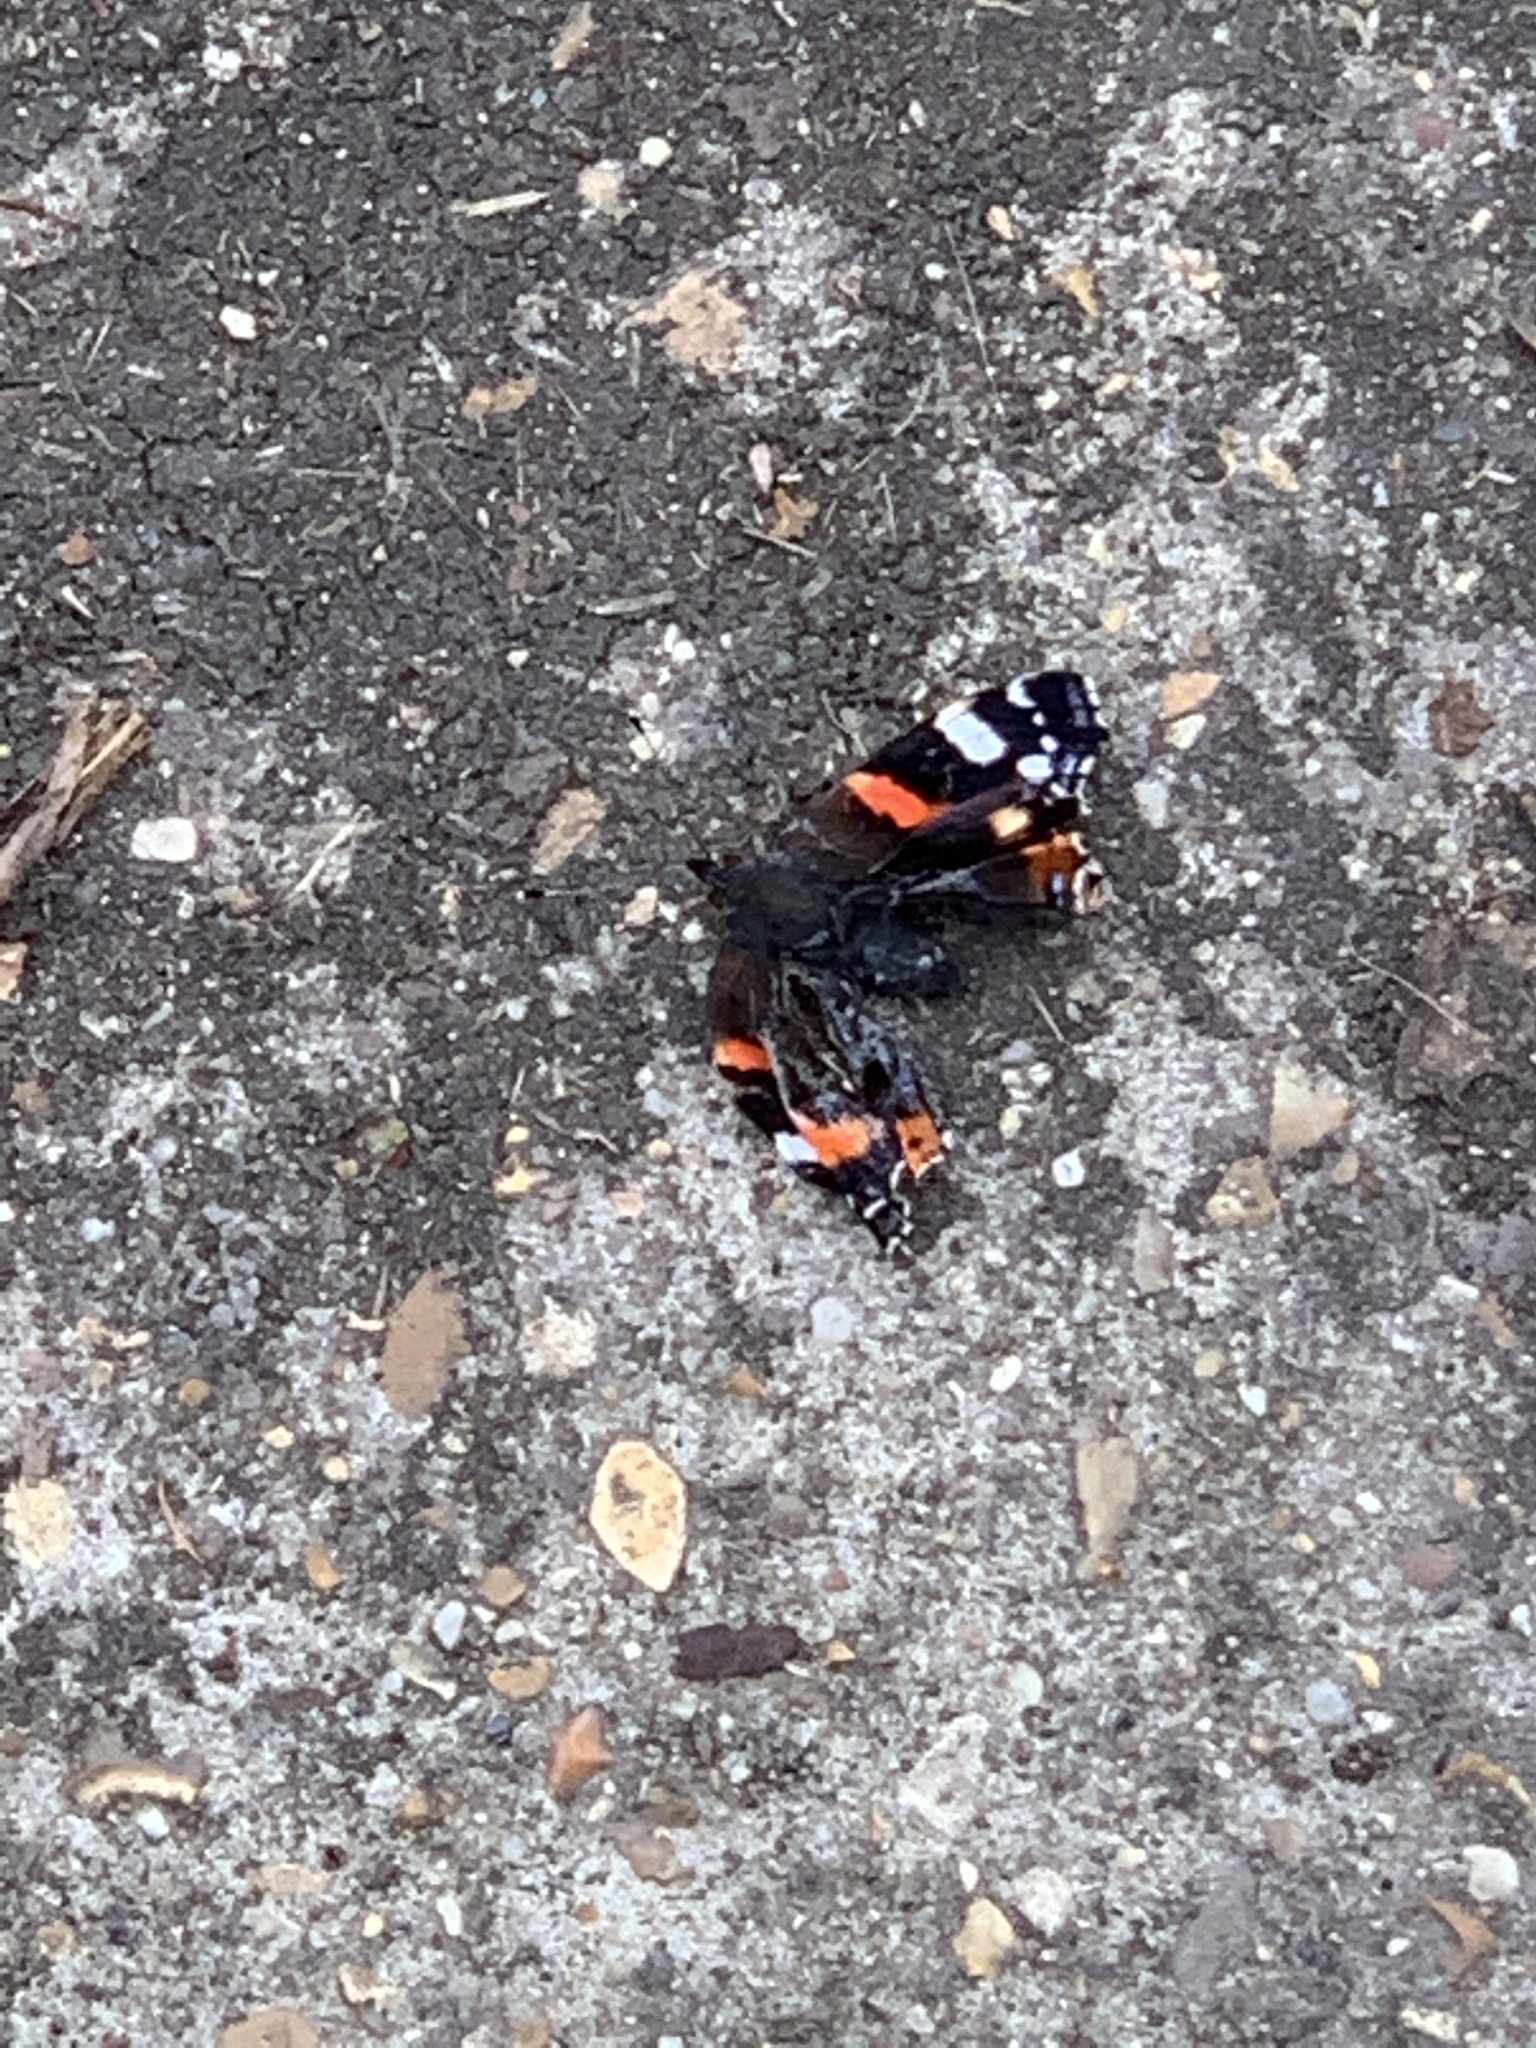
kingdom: Animalia
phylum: Arthropoda
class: Insecta
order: Lepidoptera
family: Nymphalidae
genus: Vanessa
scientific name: Vanessa atalanta
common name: Red admiral
